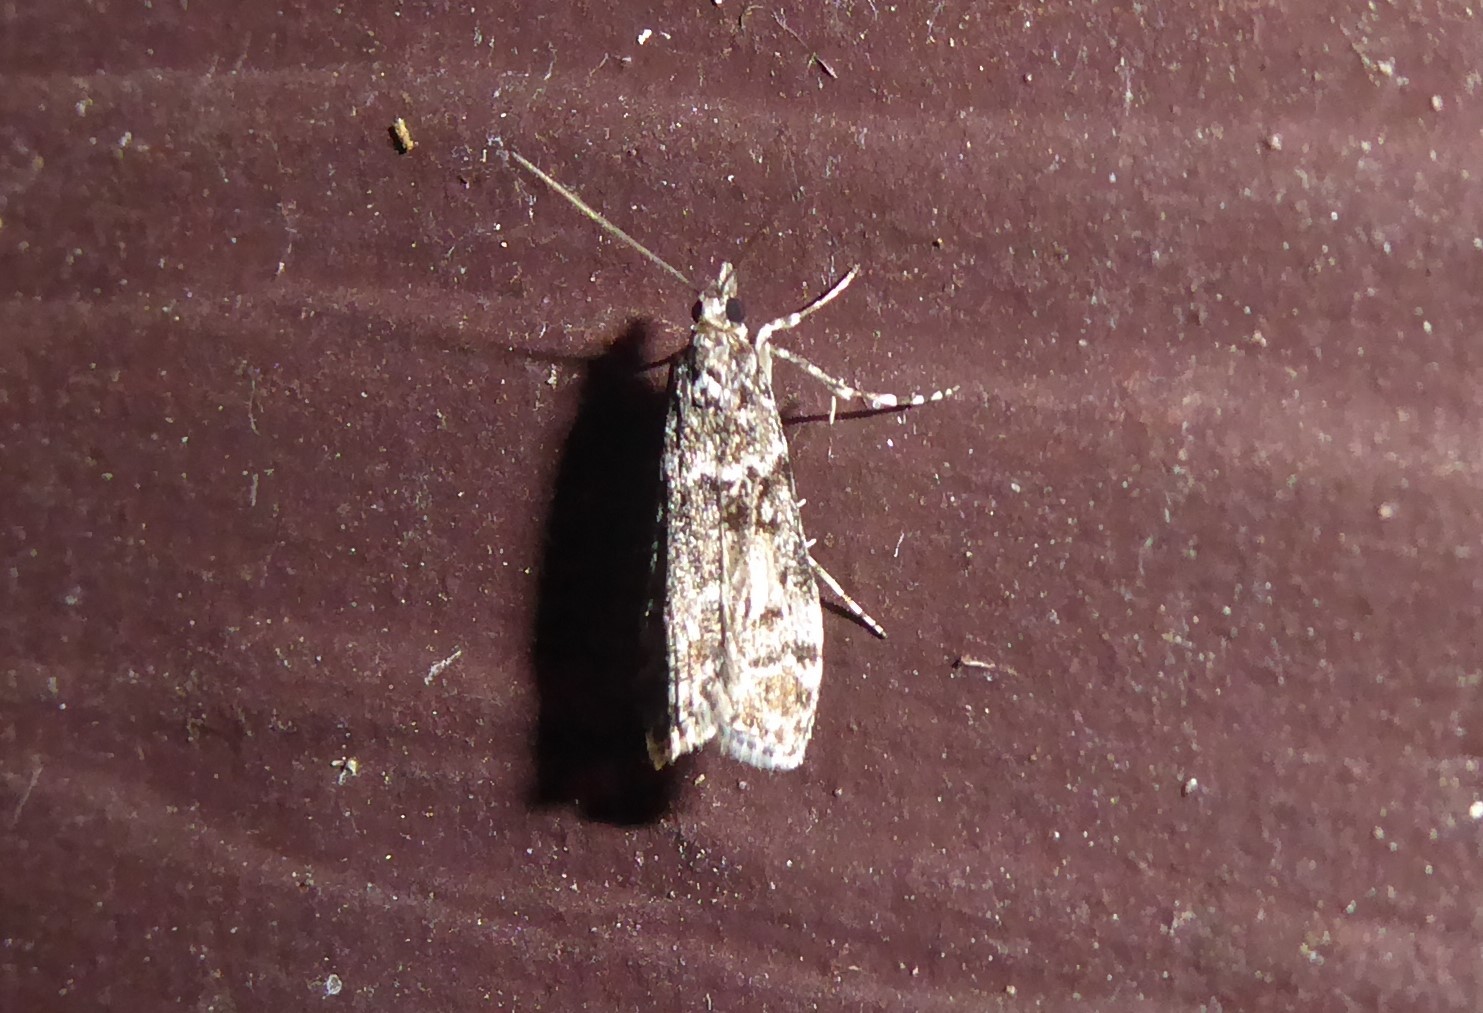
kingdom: Animalia
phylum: Arthropoda
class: Insecta
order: Lepidoptera
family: Crambidae
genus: Eudonia
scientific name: Eudonia philerga
